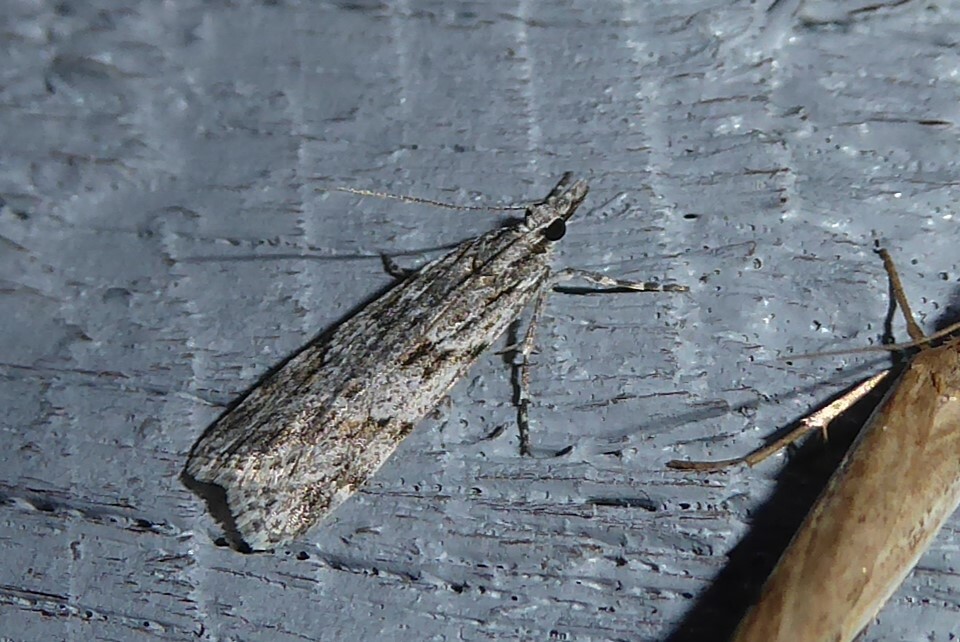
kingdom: Animalia
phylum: Arthropoda
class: Insecta
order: Lepidoptera
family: Crambidae
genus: Scoparia
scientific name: Scoparia chalicodes
